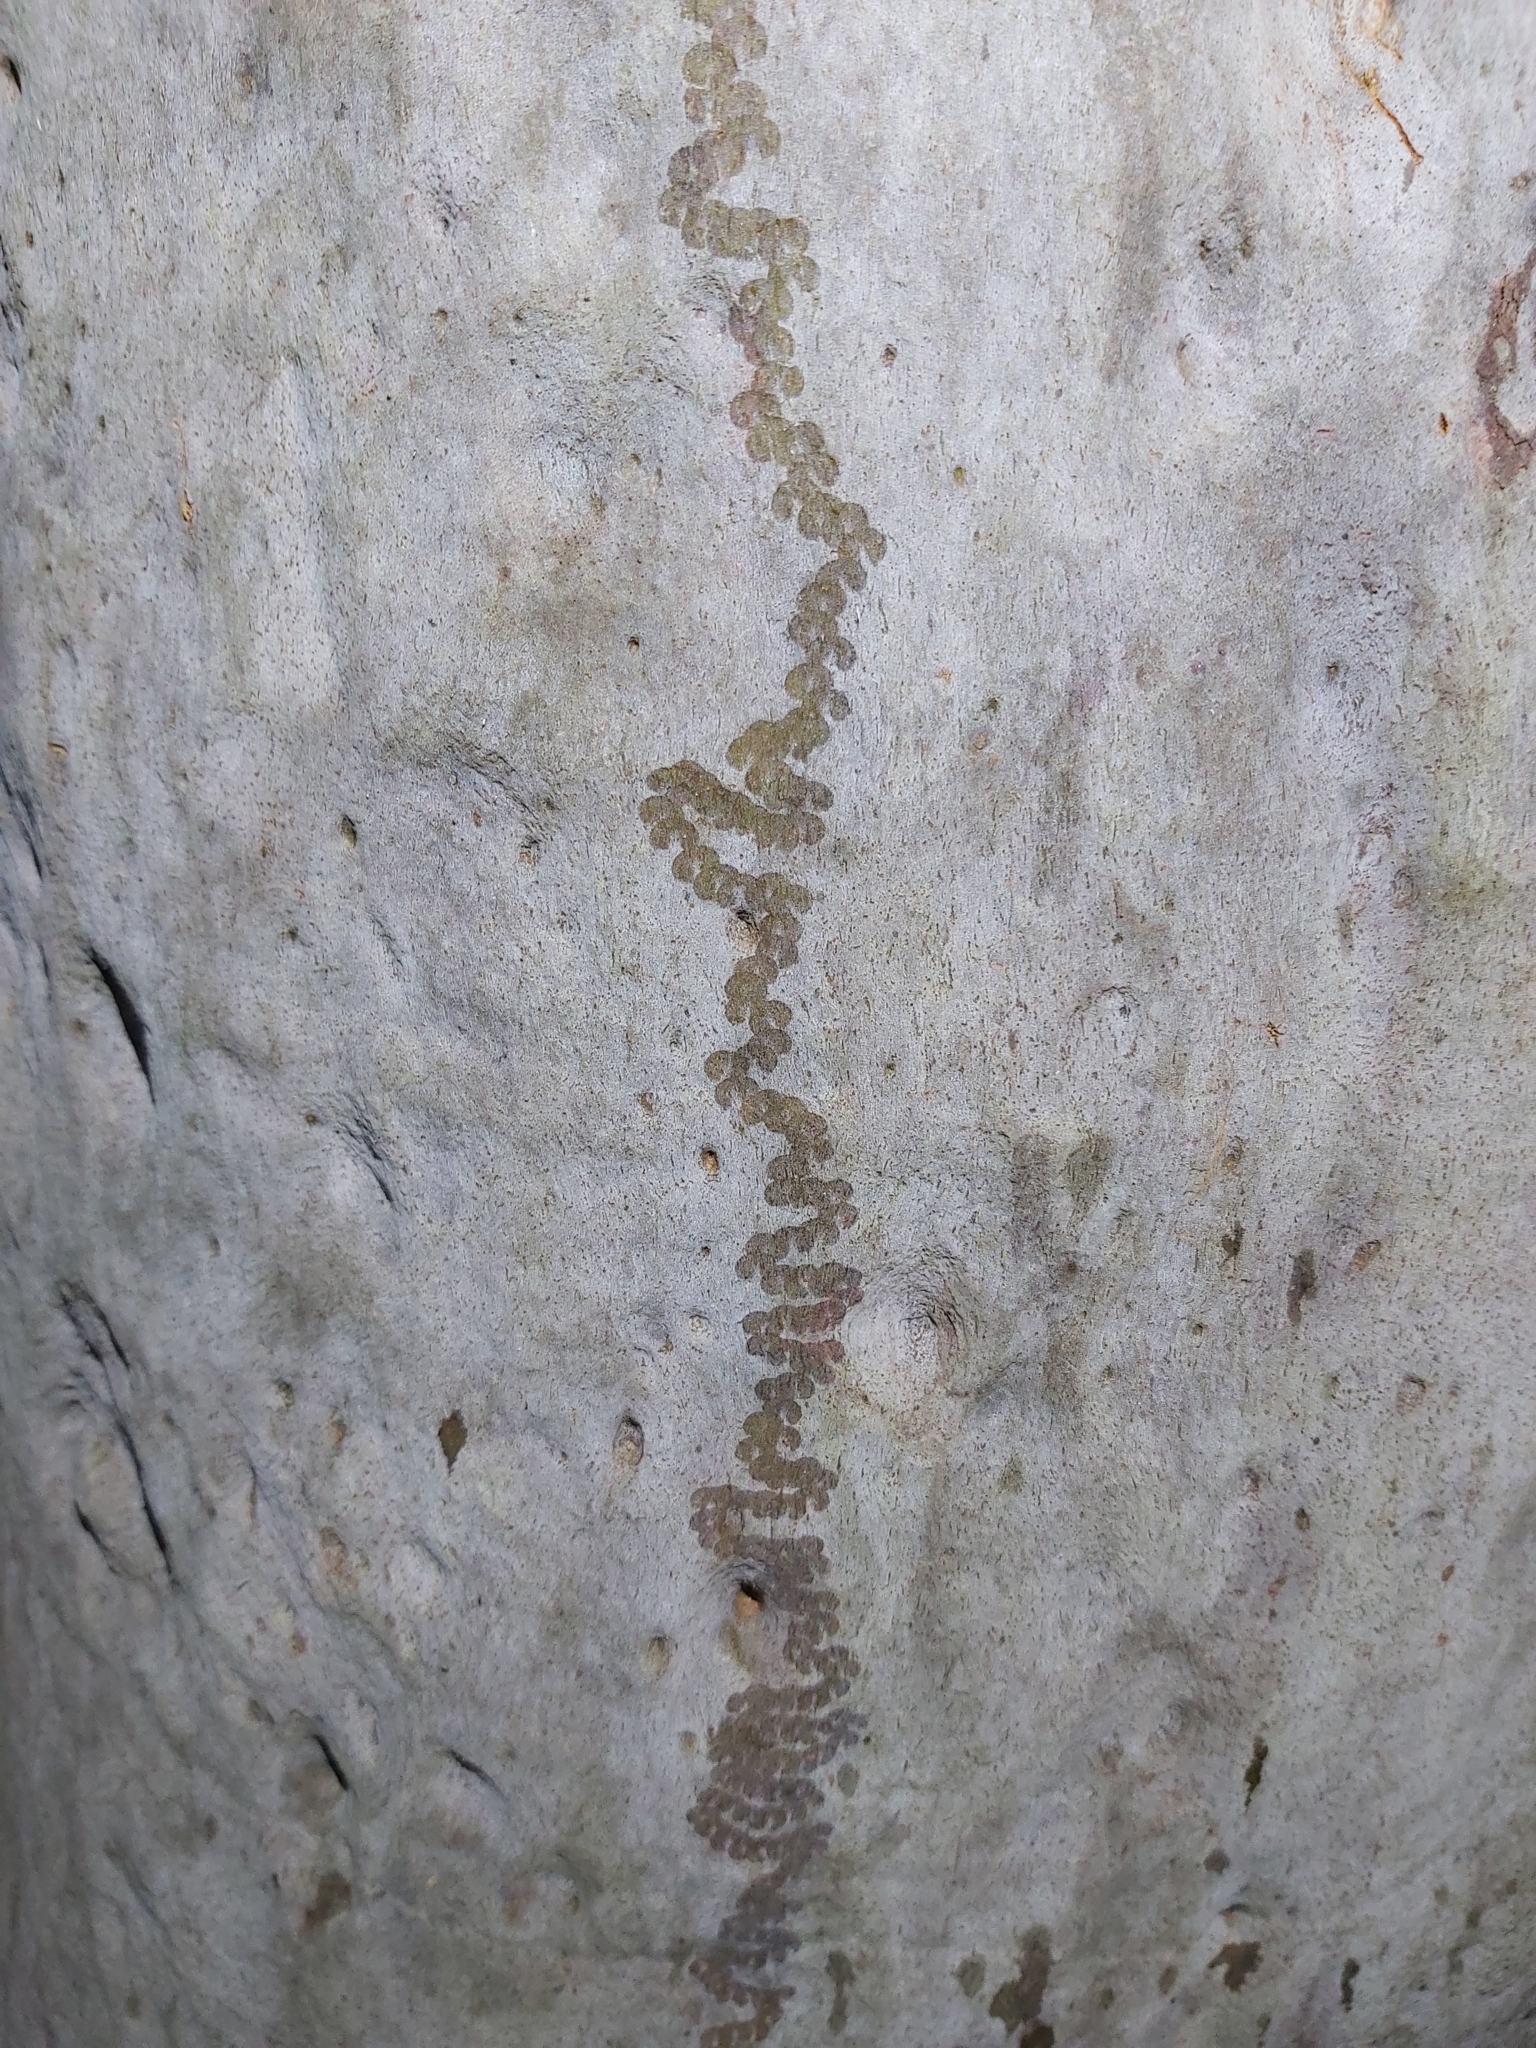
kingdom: Animalia
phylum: Mollusca
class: Gastropoda
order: Stylommatophora
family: Athoracophoridae
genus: Triboniophorus
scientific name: Triboniophorus graeffei
